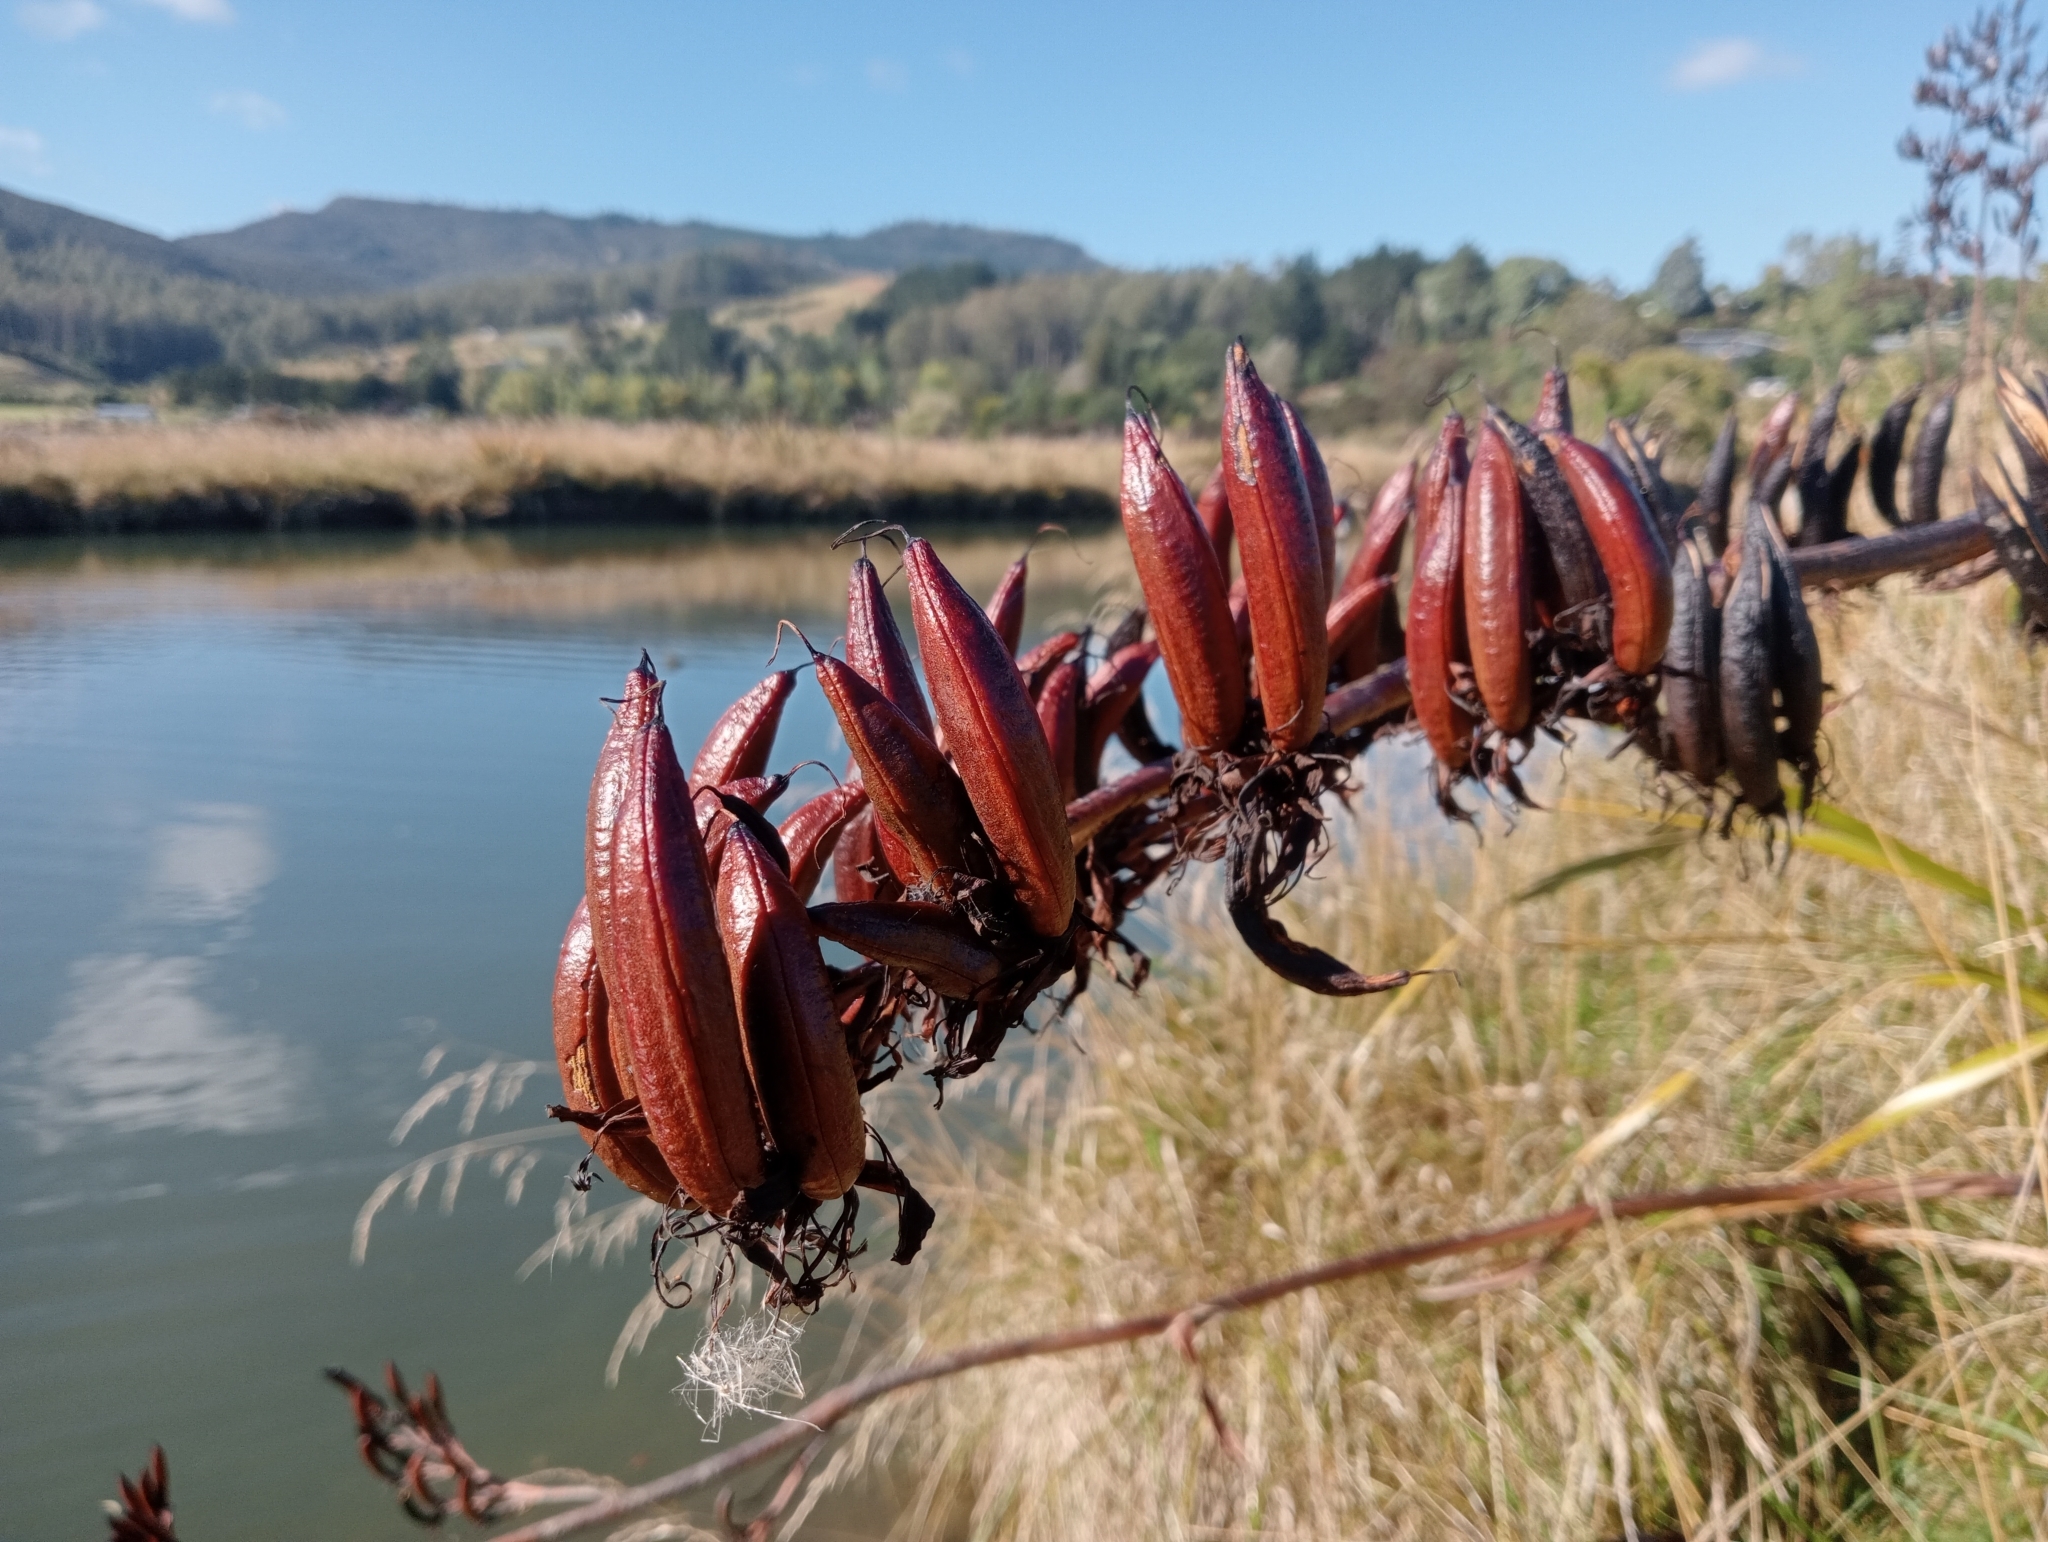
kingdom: Plantae
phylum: Tracheophyta
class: Liliopsida
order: Asparagales
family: Asphodelaceae
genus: Phormium
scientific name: Phormium tenax
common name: New zealand flax
